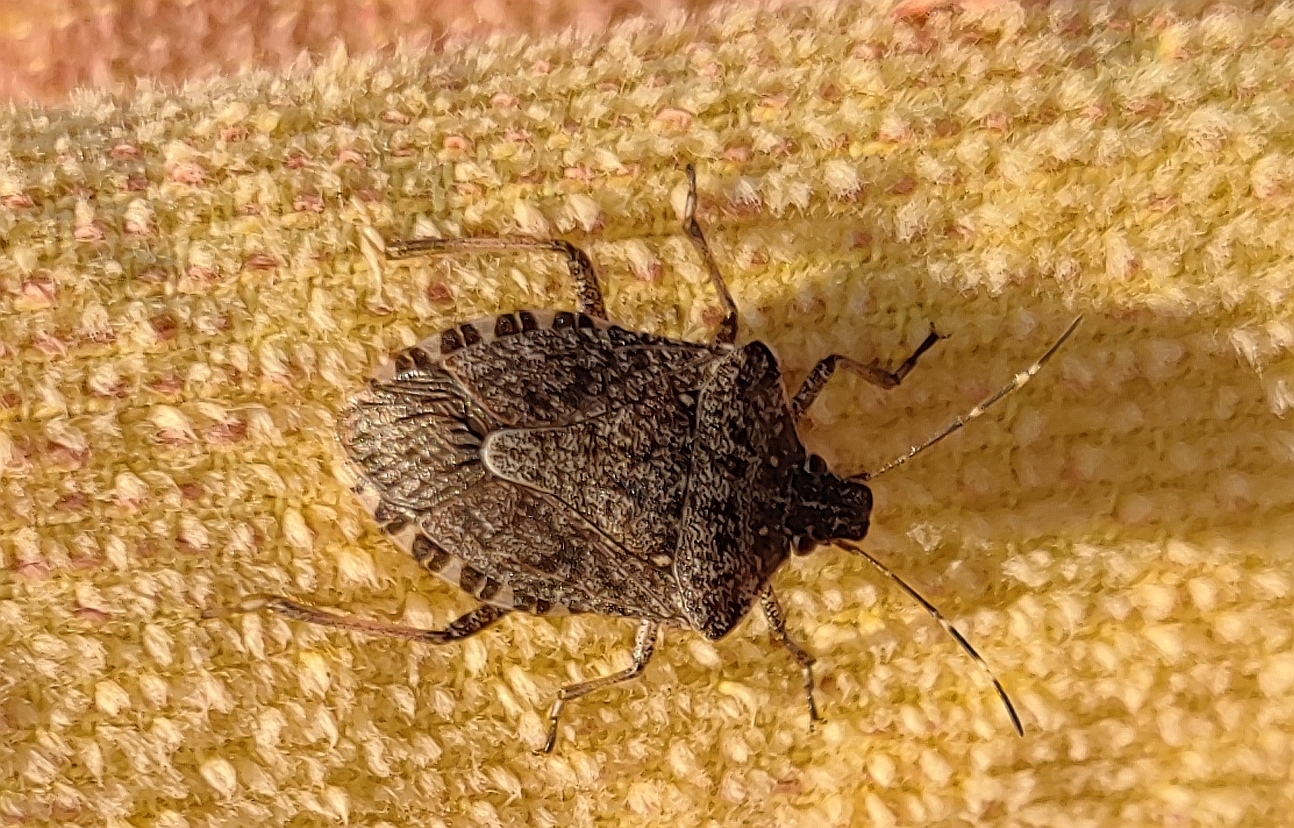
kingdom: Animalia
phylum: Arthropoda
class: Insecta
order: Hemiptera
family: Pentatomidae
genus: Halyomorpha
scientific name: Halyomorpha halys
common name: Brown marmorated stink bug
